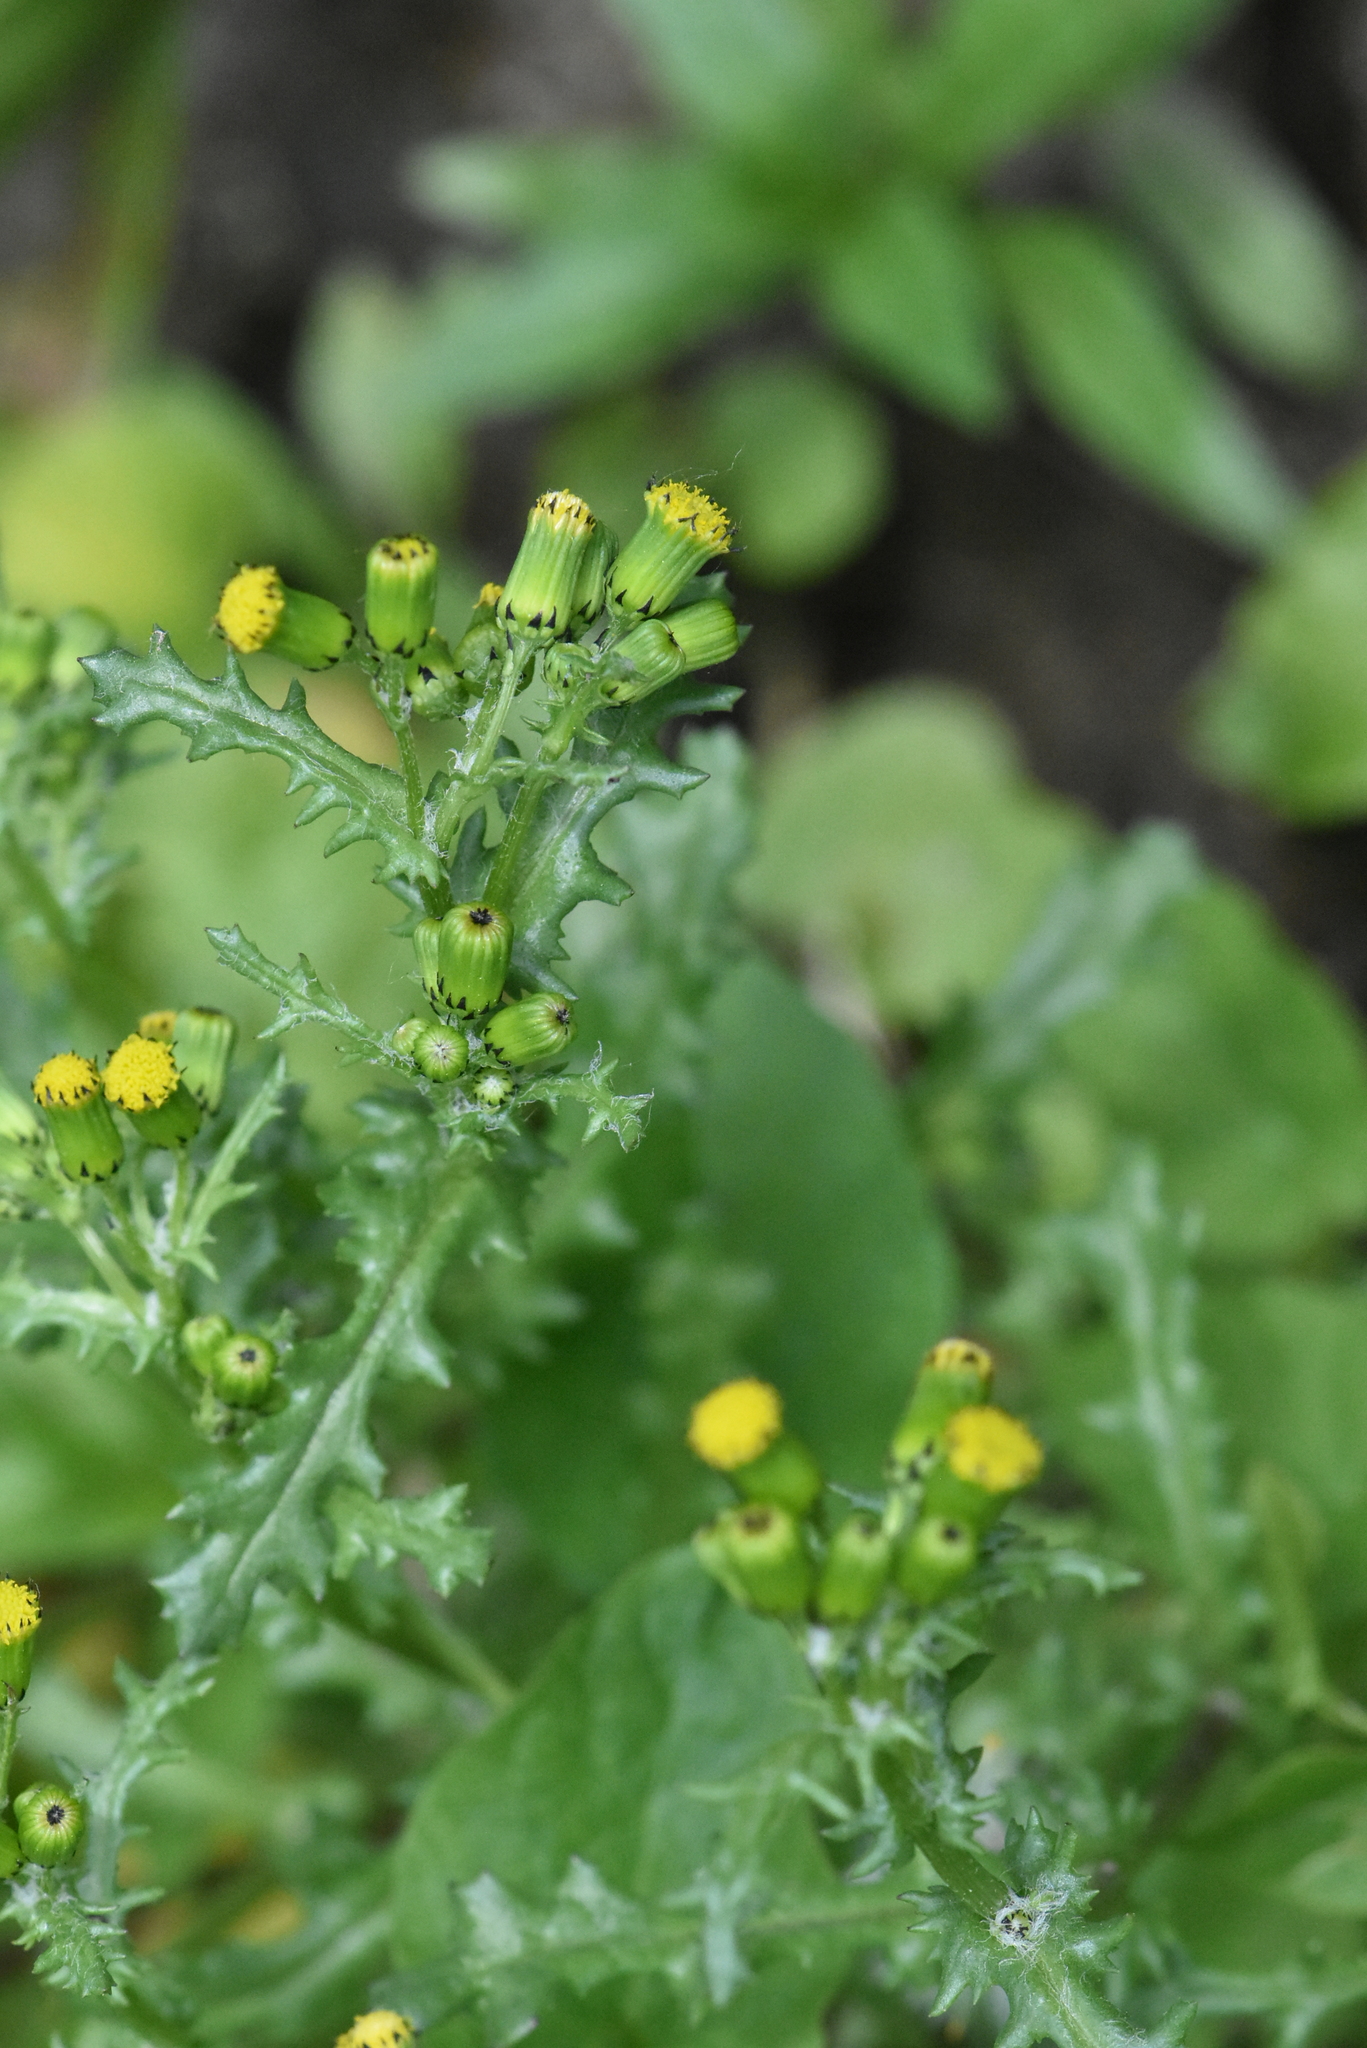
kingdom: Plantae
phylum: Tracheophyta
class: Magnoliopsida
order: Asterales
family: Asteraceae
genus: Senecio
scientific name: Senecio vulgaris
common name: Old-man-in-the-spring
